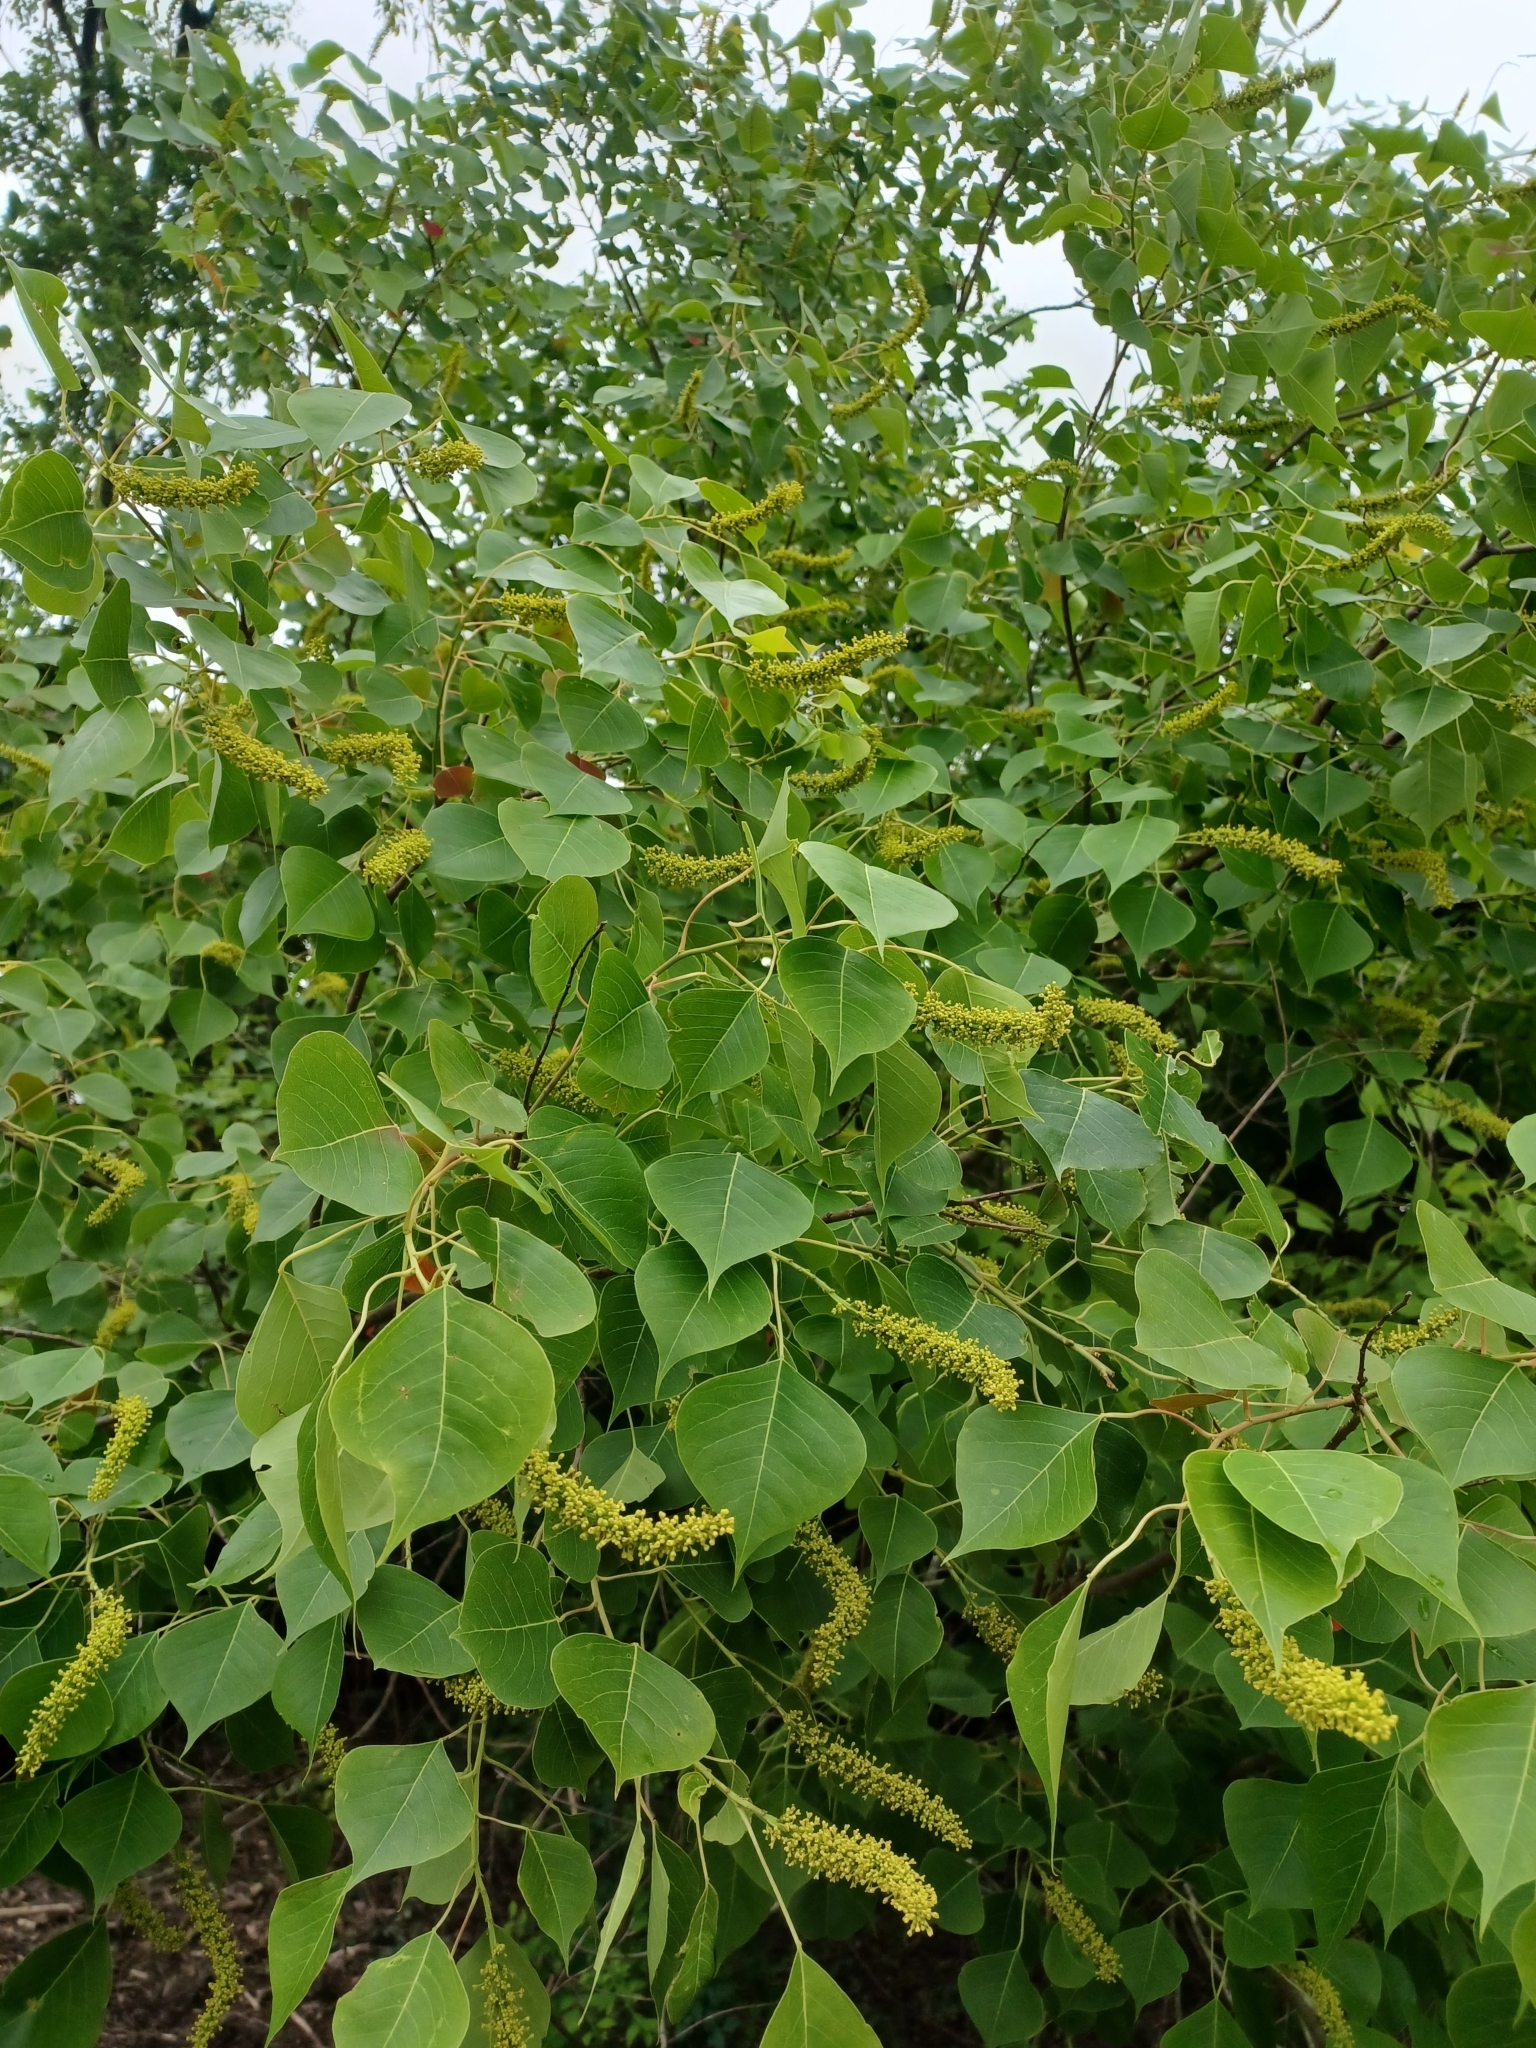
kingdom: Plantae
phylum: Tracheophyta
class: Magnoliopsida
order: Malpighiales
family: Euphorbiaceae
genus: Triadica
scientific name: Triadica sebifera
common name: Chinese tallow
